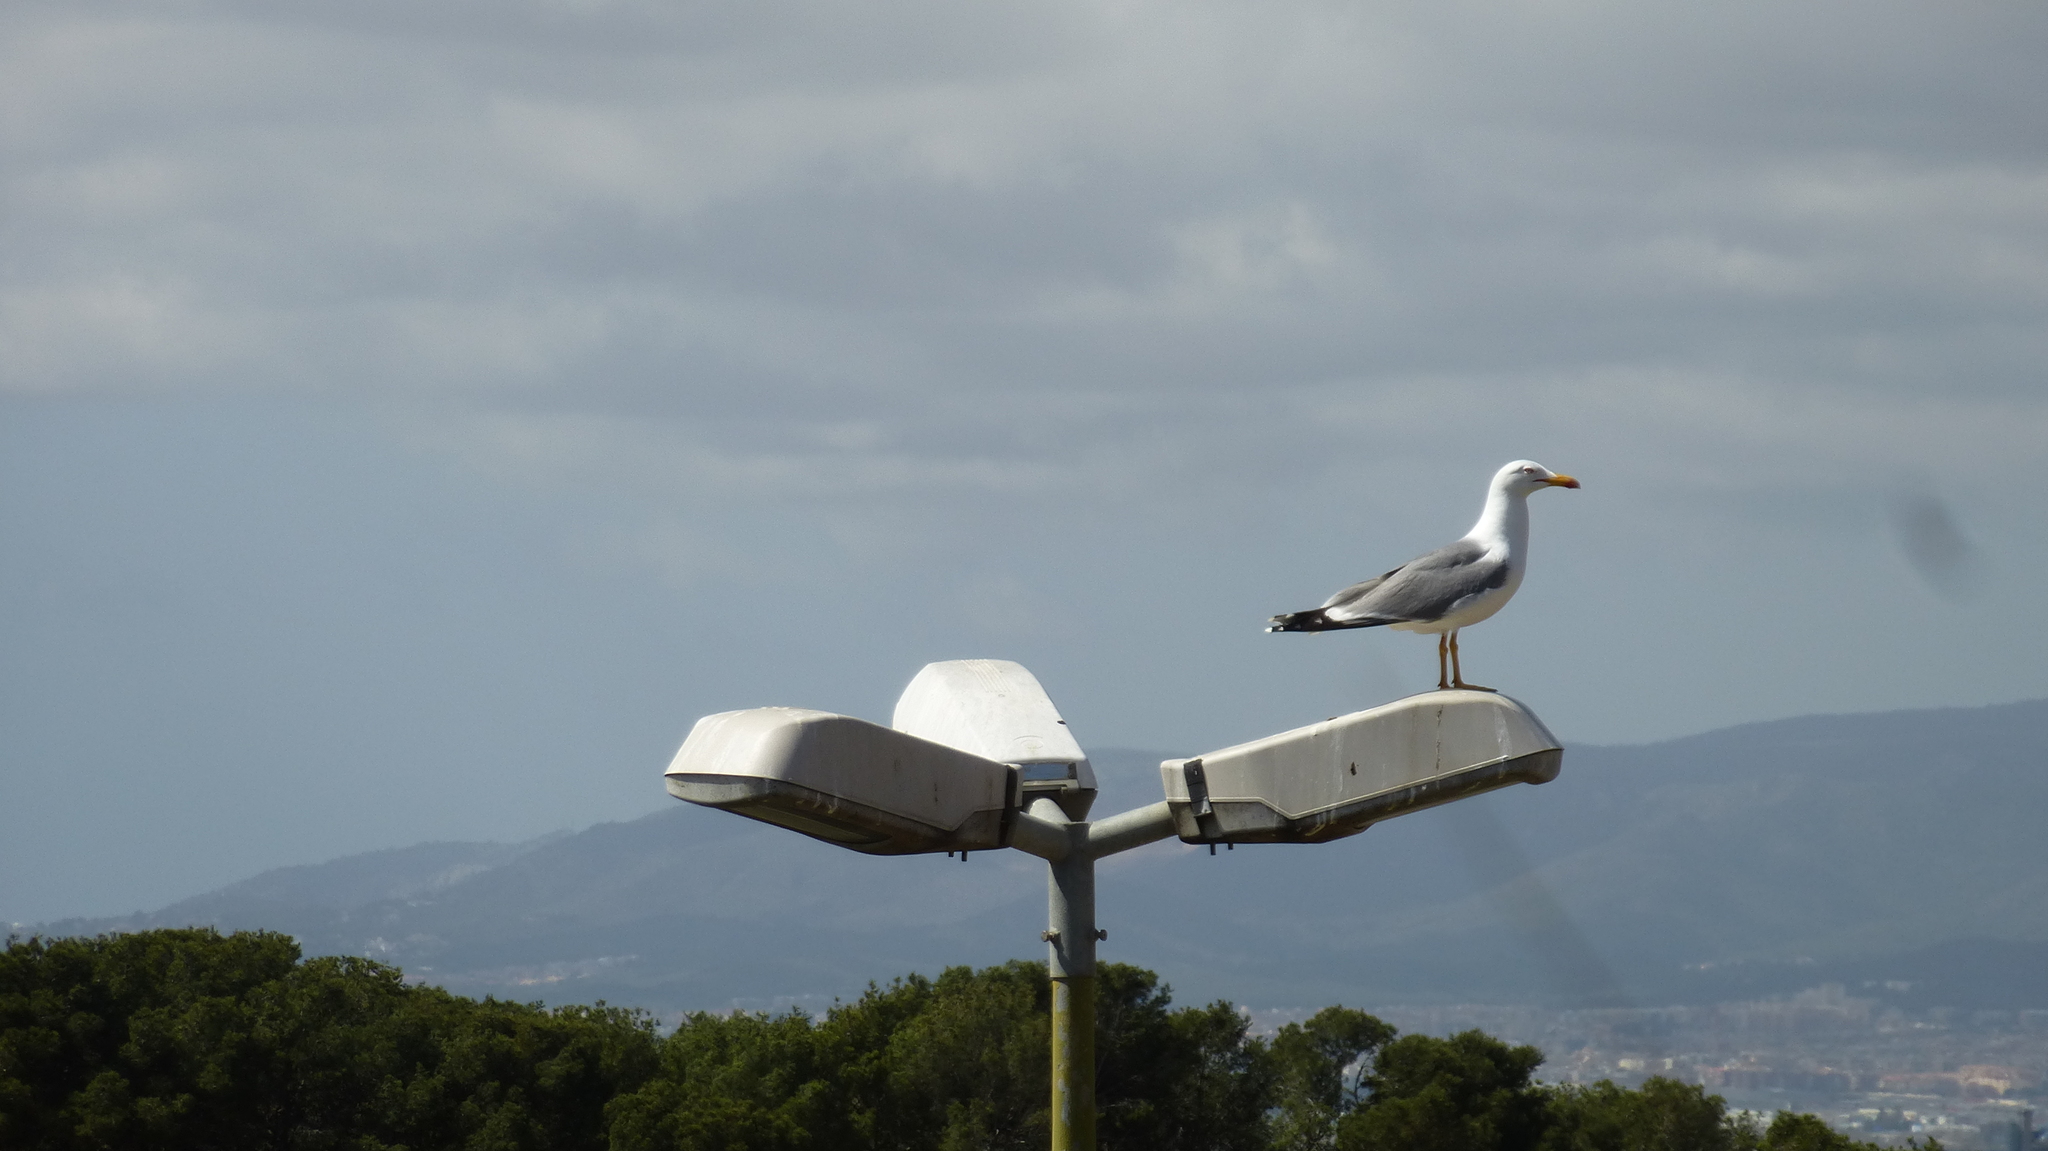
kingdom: Animalia
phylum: Chordata
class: Aves
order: Charadriiformes
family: Laridae
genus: Larus
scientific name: Larus michahellis
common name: Yellow-legged gull
